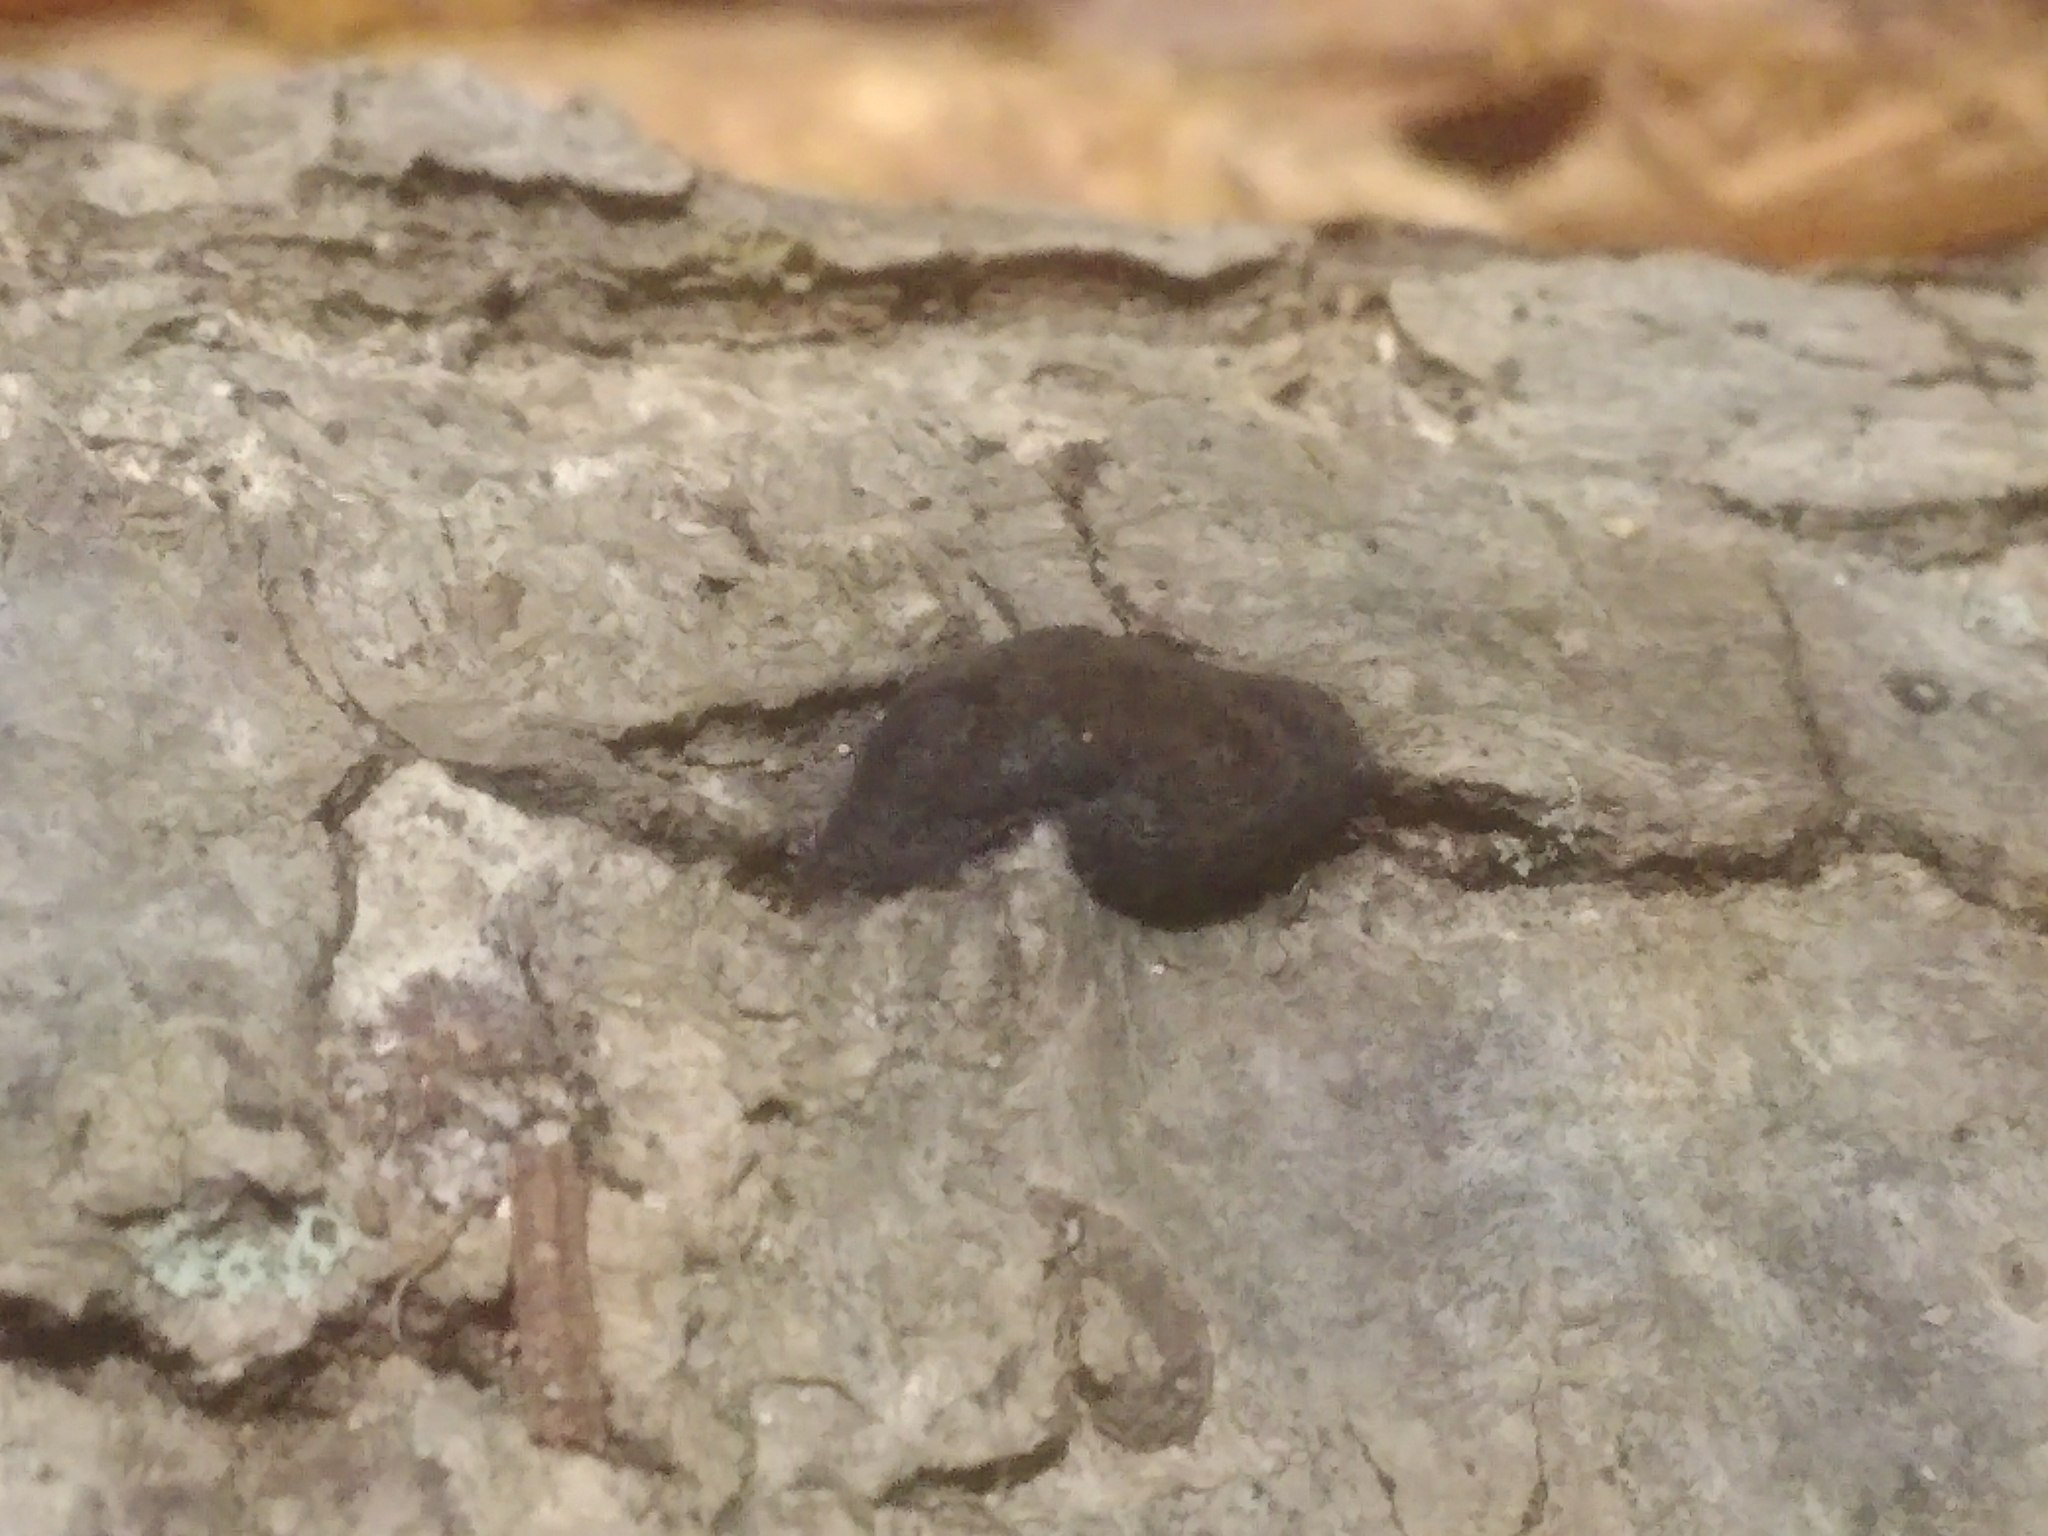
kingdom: Fungi
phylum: Ascomycota
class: Sordariomycetes
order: Xylariales
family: Hypoxylaceae
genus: Annulohypoxylon
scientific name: Annulohypoxylon thouarsianum
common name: Cramp balls
